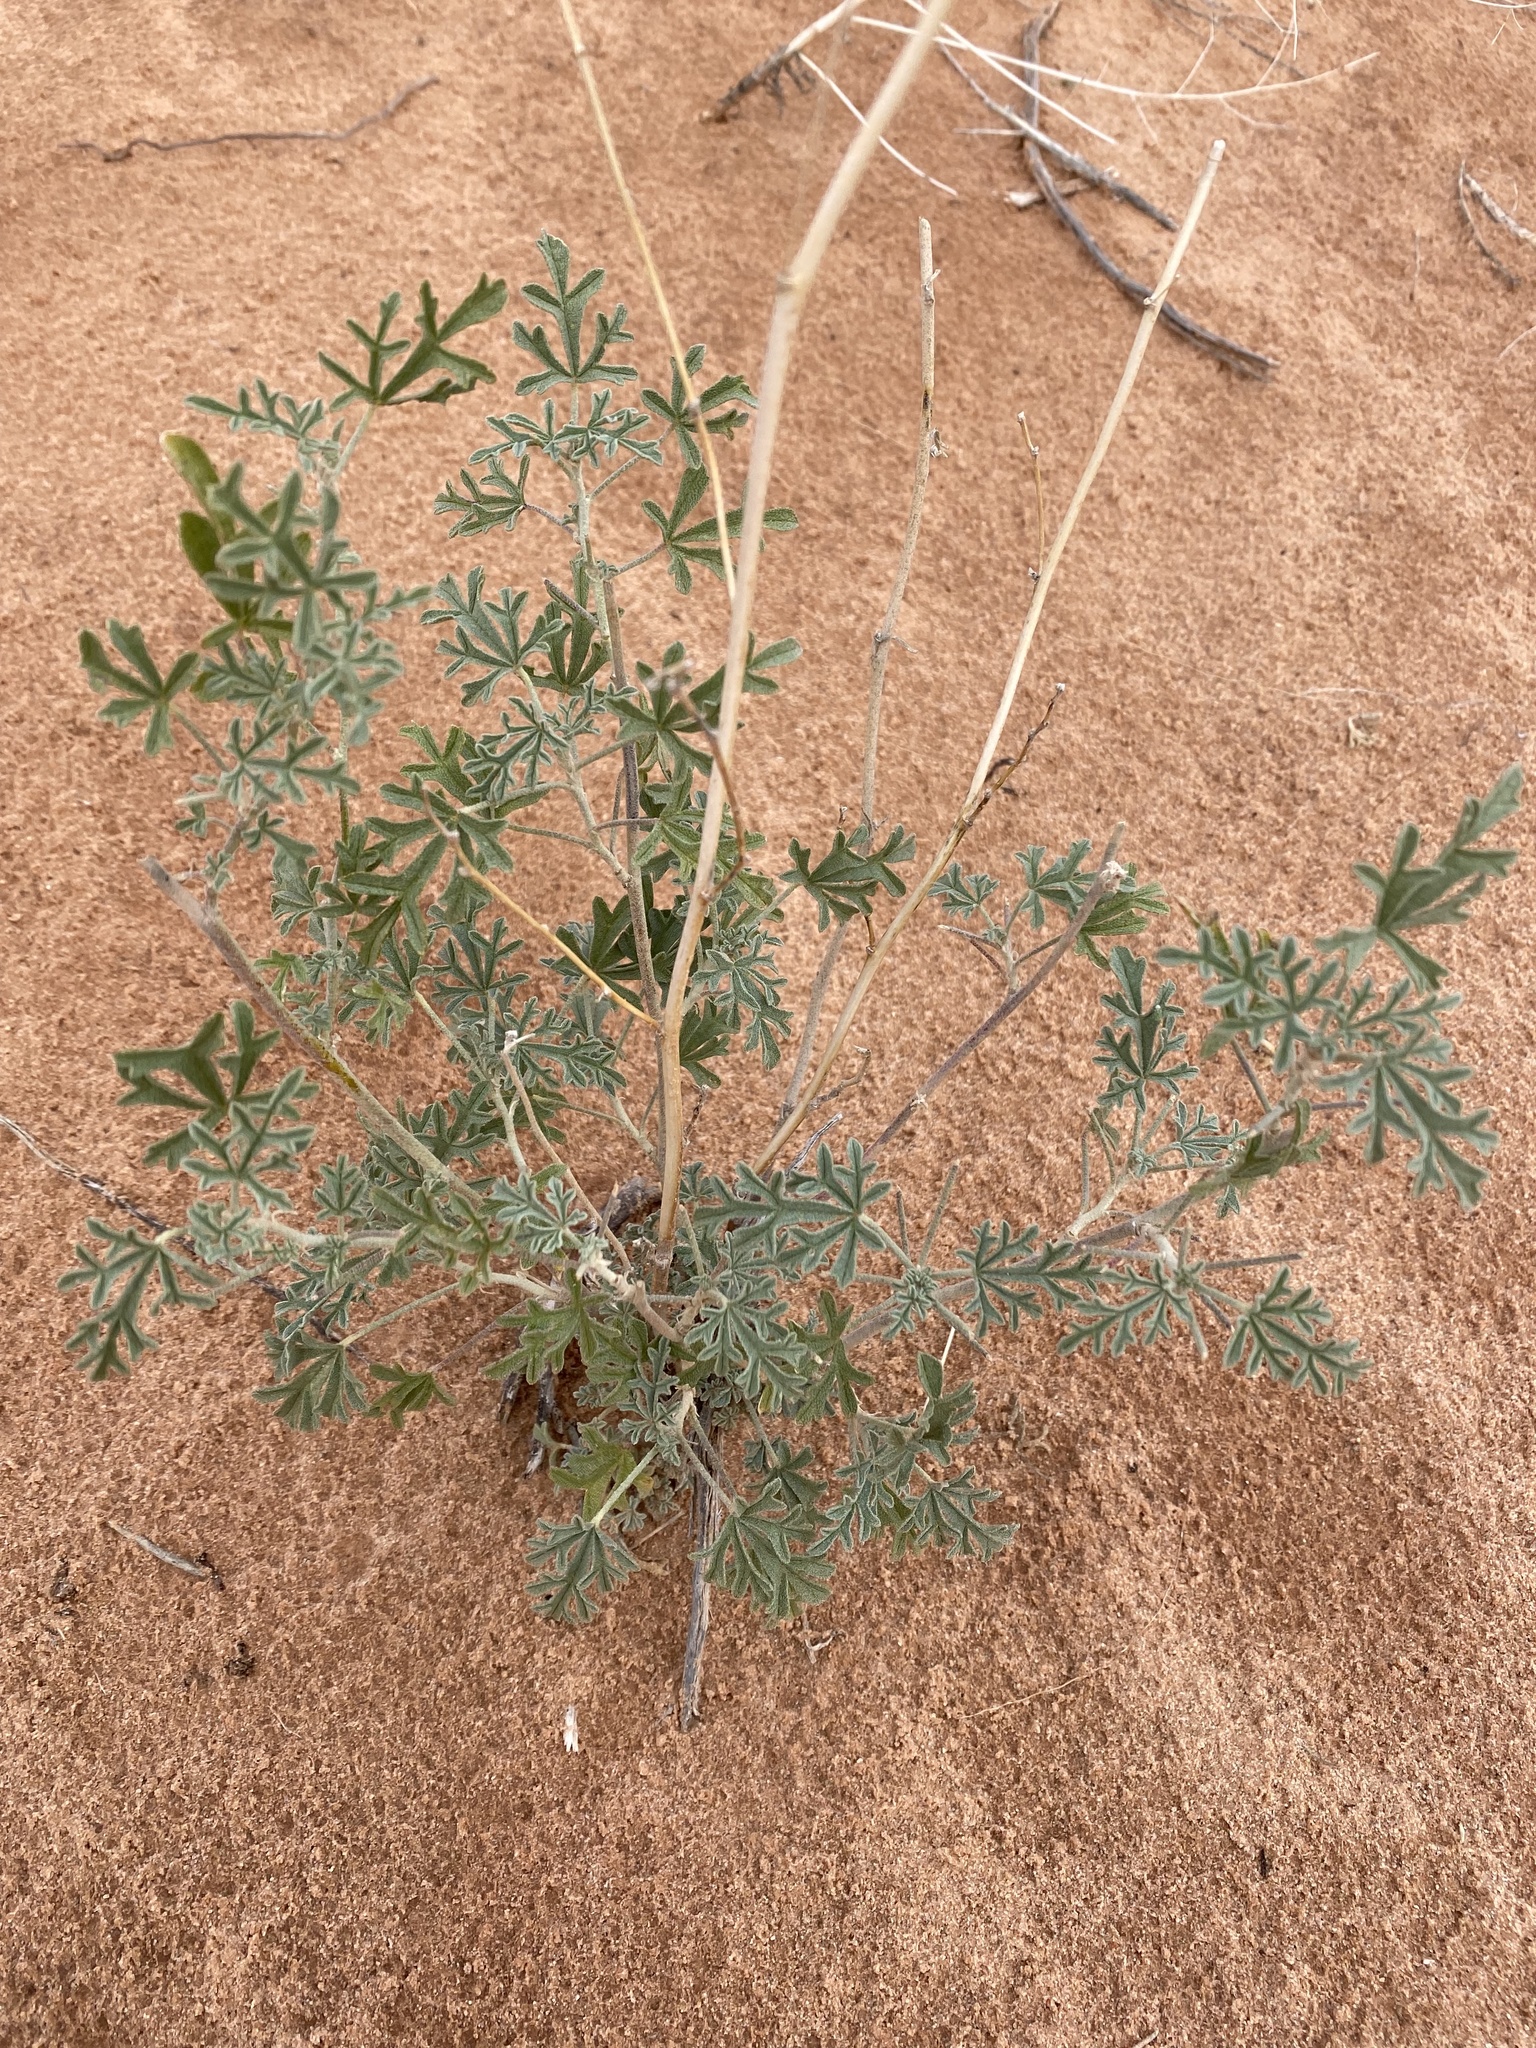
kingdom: Plantae
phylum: Tracheophyta
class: Magnoliopsida
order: Malvales
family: Malvaceae
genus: Sphaeralcea
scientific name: Sphaeralcea grossulariifolia
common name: Current-leaf globe-mallow
